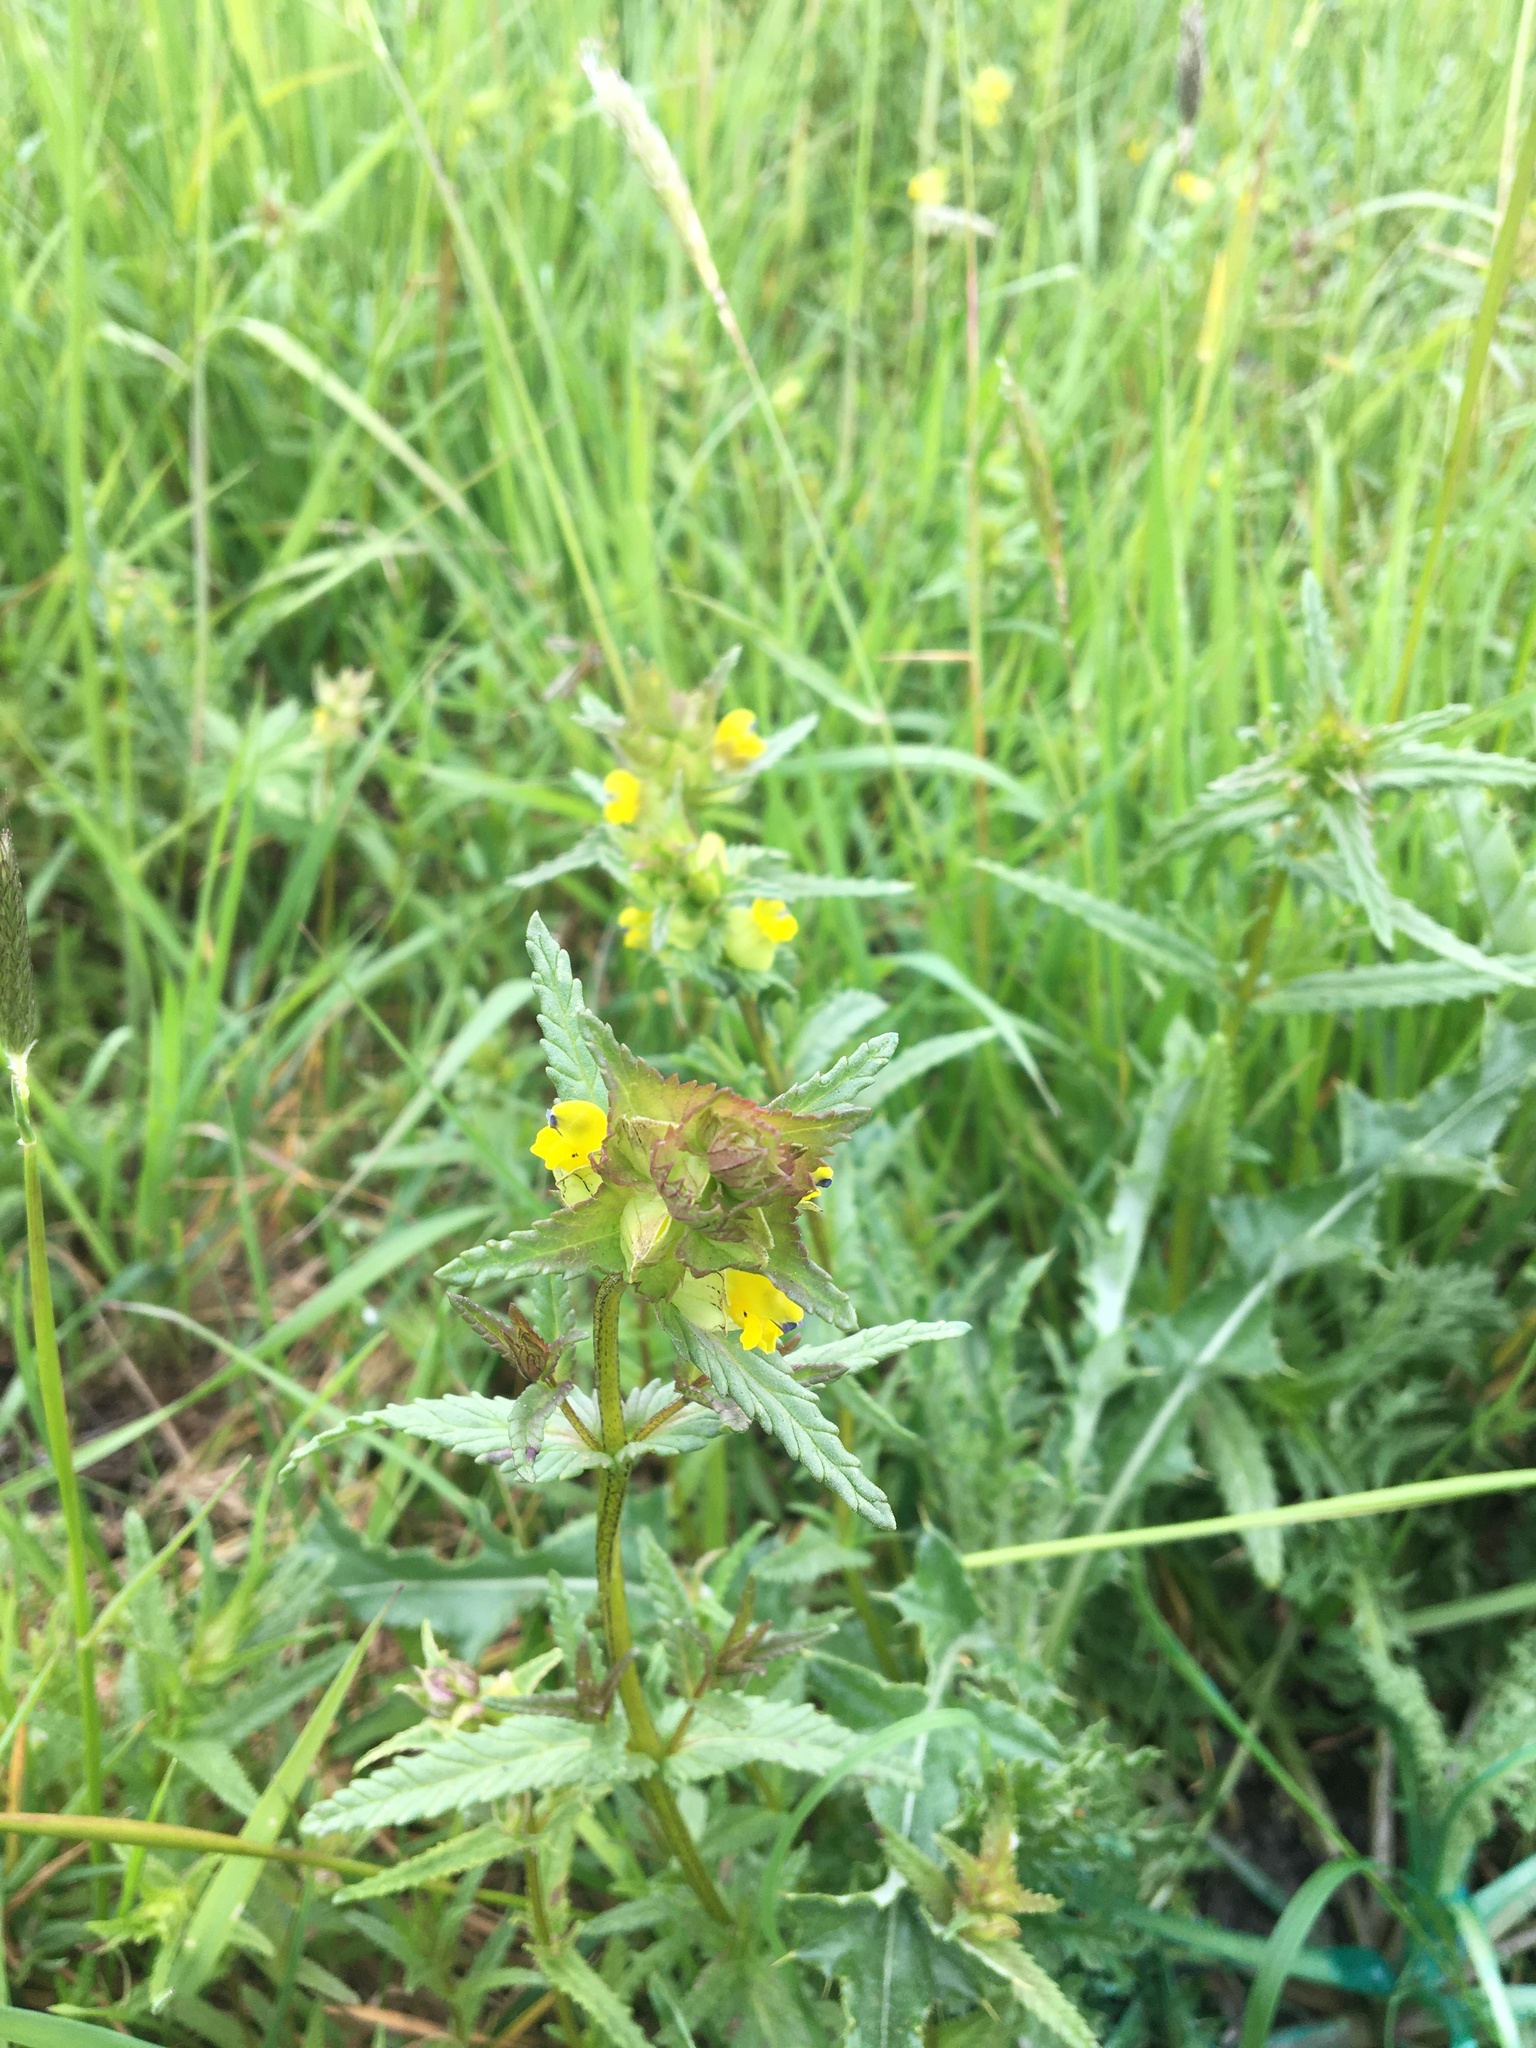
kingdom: Plantae
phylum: Tracheophyta
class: Magnoliopsida
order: Lamiales
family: Orobanchaceae
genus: Rhinanthus
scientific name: Rhinanthus minor
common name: Yellow-rattle
